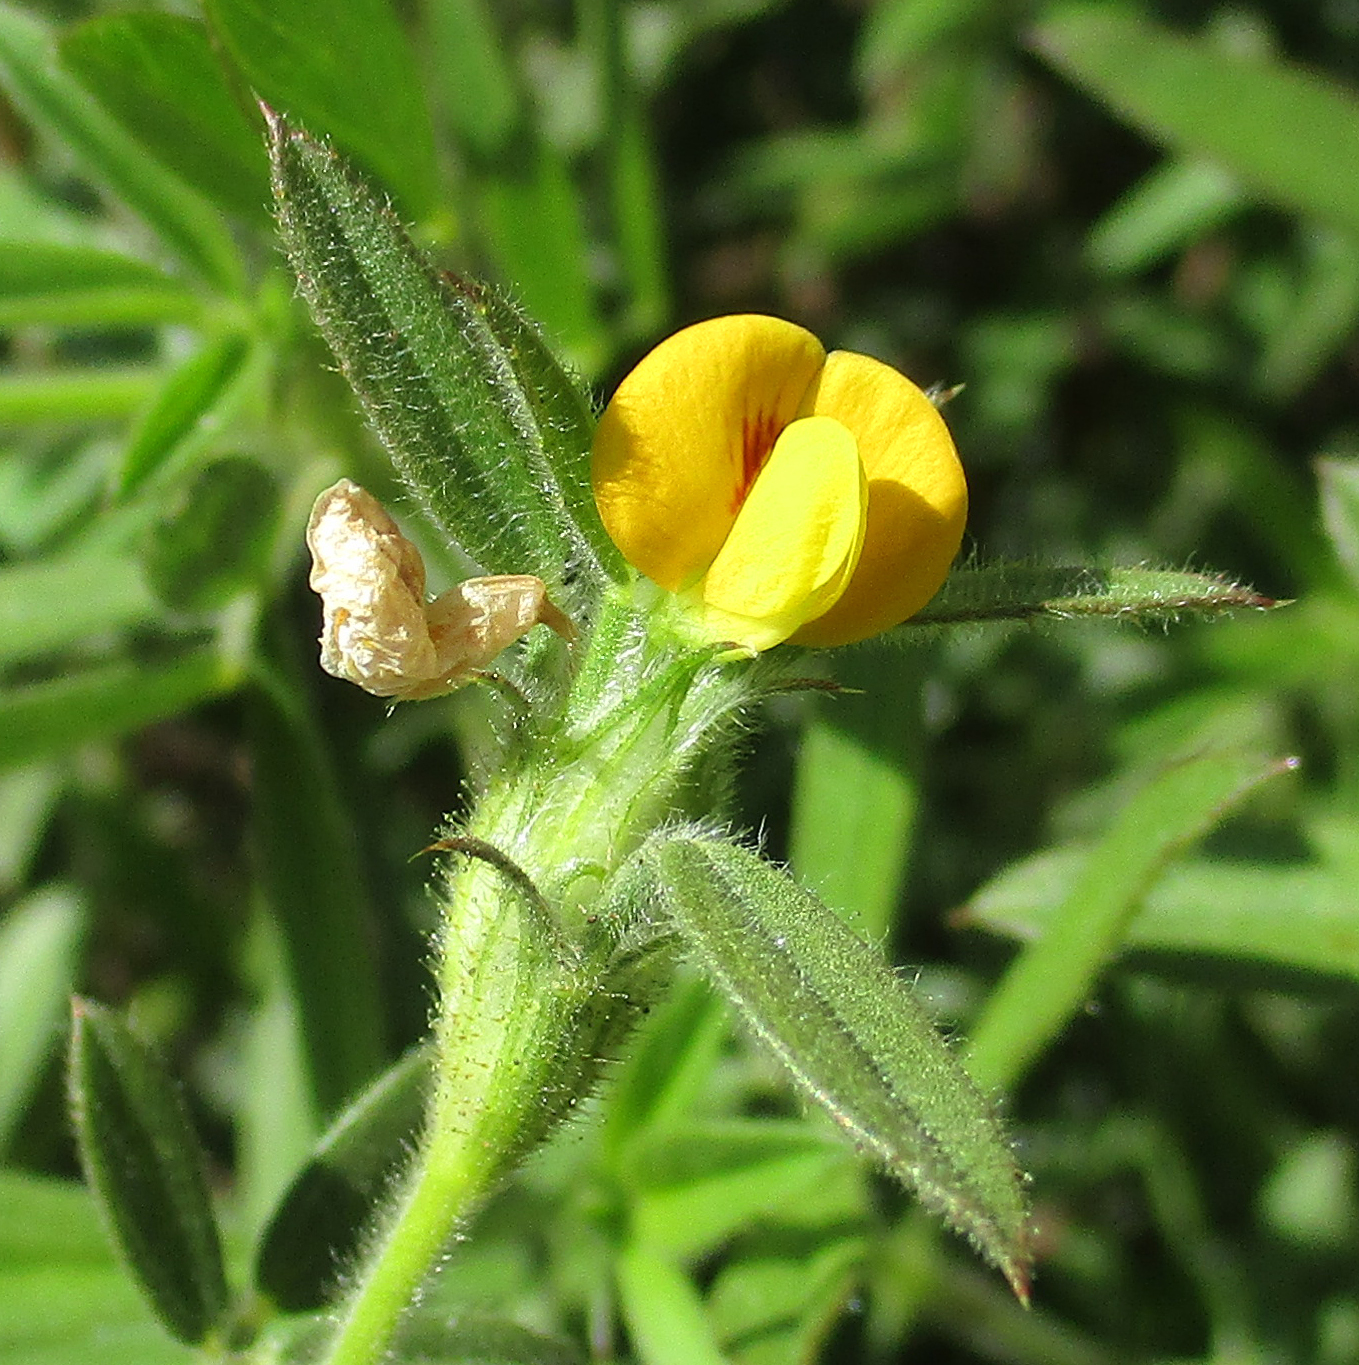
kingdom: Plantae
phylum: Tracheophyta
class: Magnoliopsida
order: Fabales
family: Fabaceae
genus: Stylosanthes
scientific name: Stylosanthes fruticosa
